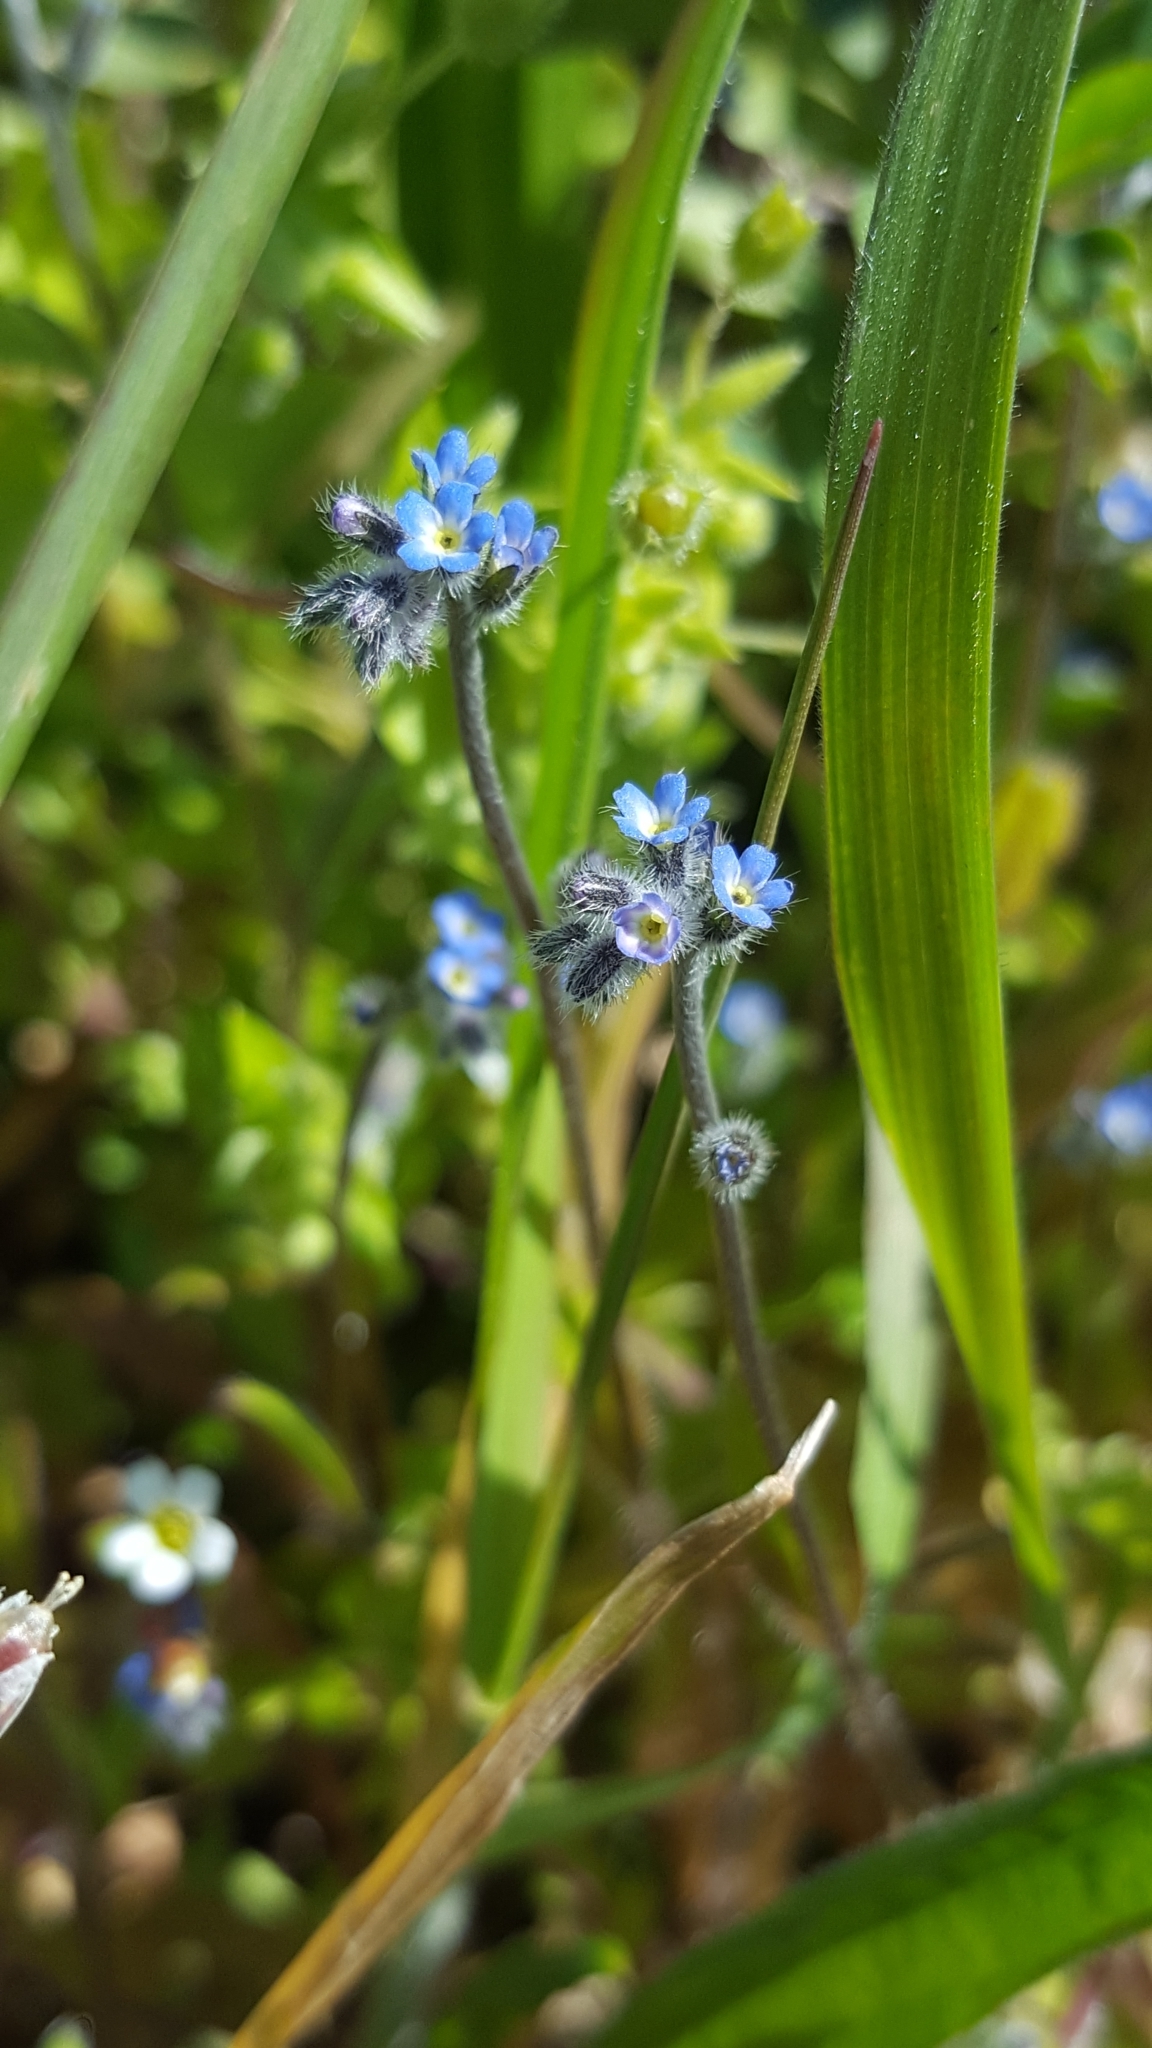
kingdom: Plantae
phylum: Tracheophyta
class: Magnoliopsida
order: Boraginales
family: Boraginaceae
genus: Myosotis
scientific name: Myosotis arvensis
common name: Field forget-me-not
